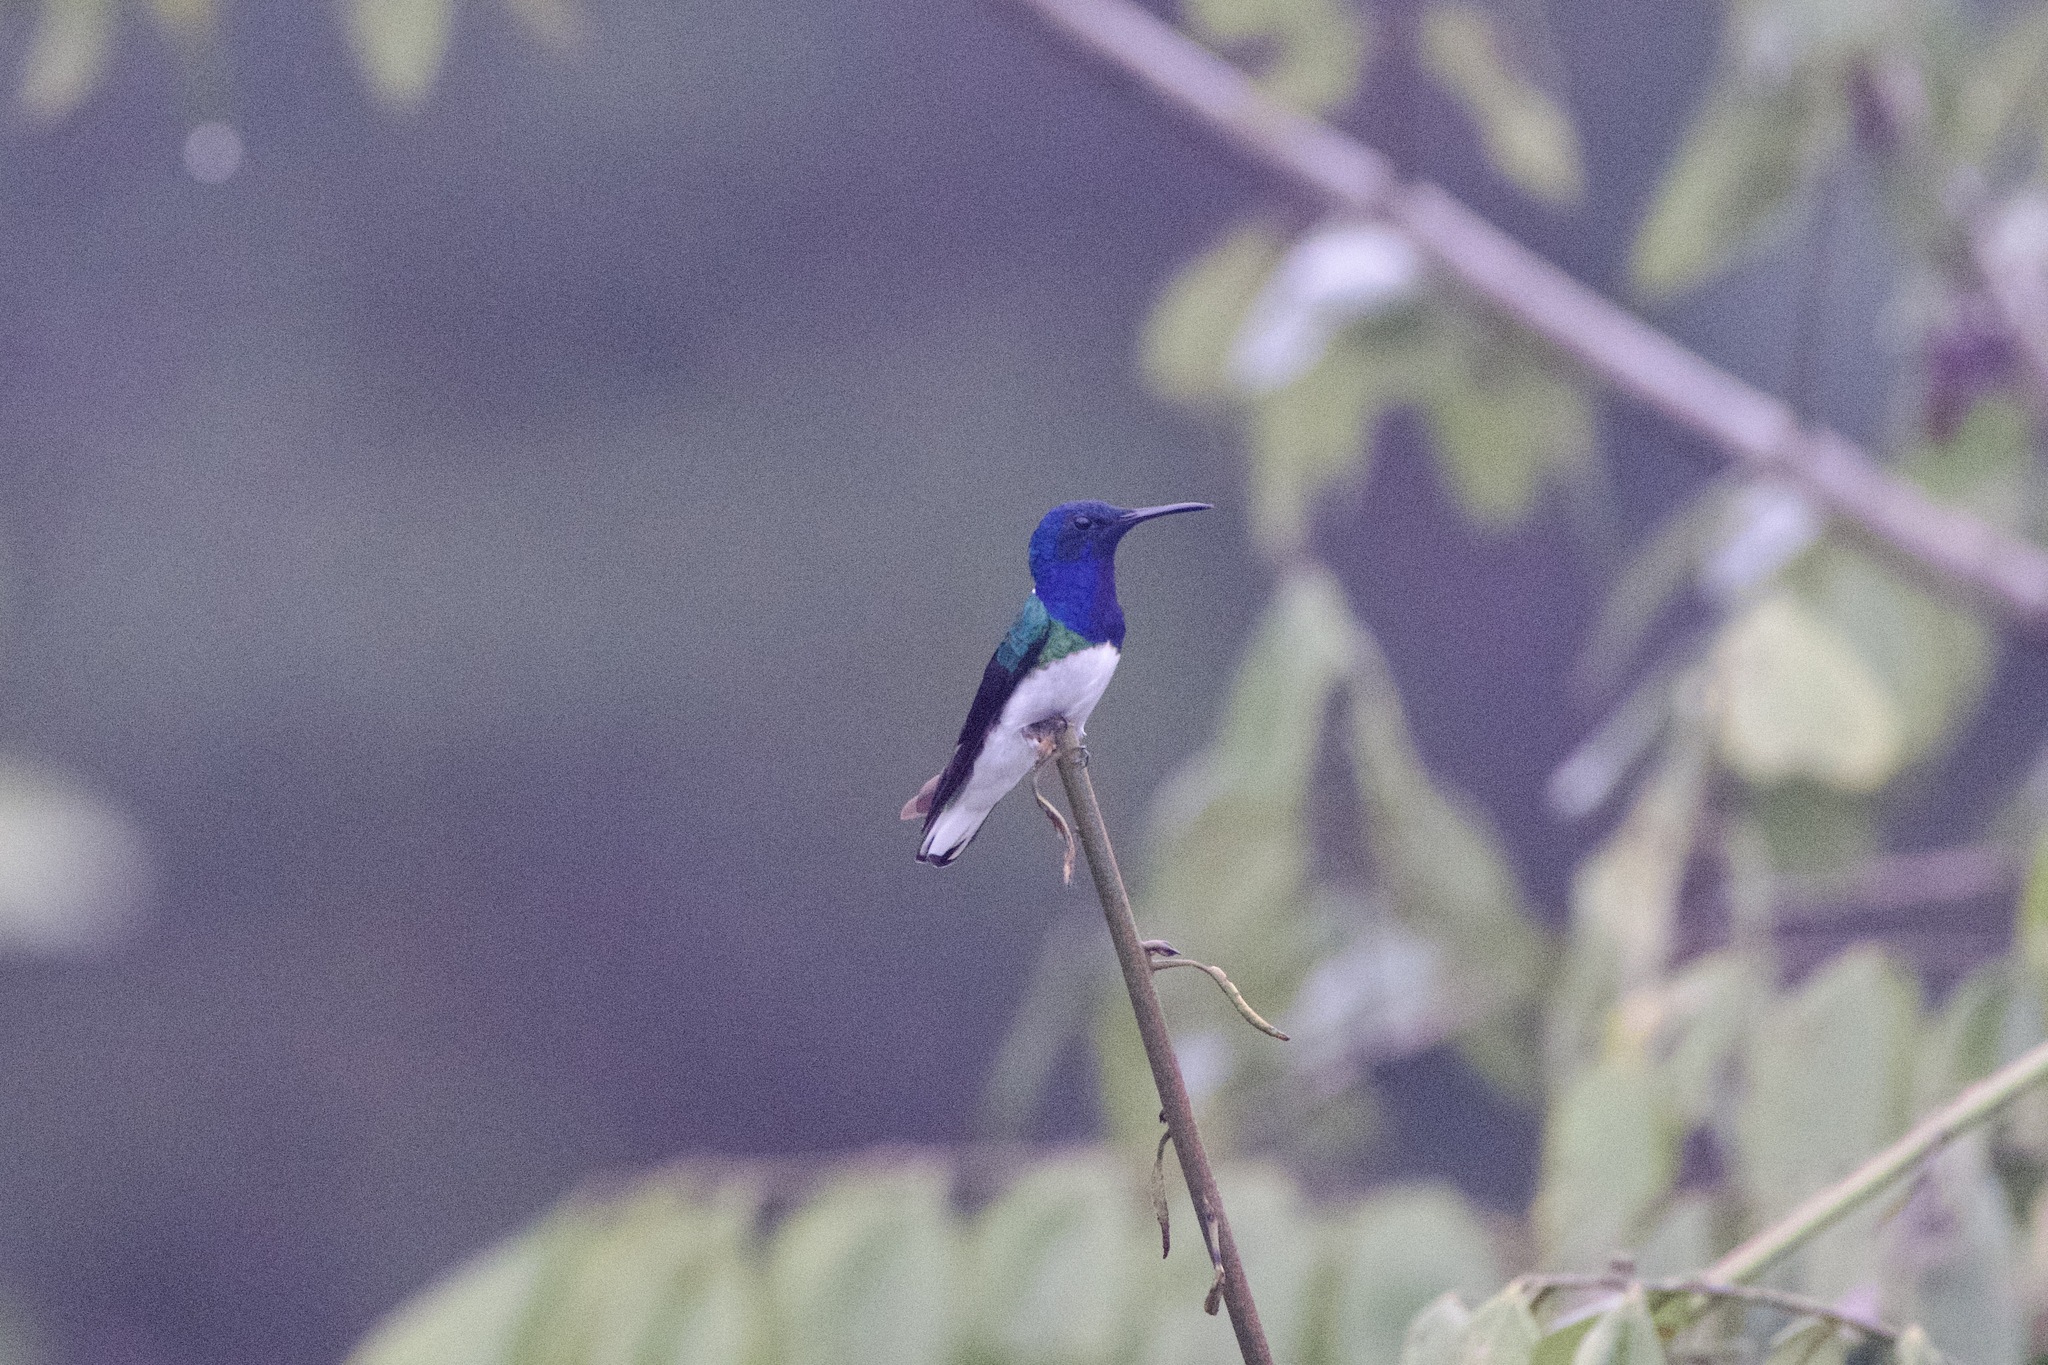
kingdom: Animalia
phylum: Chordata
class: Aves
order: Apodiformes
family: Trochilidae
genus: Florisuga
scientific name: Florisuga mellivora
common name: White-necked jacobin
